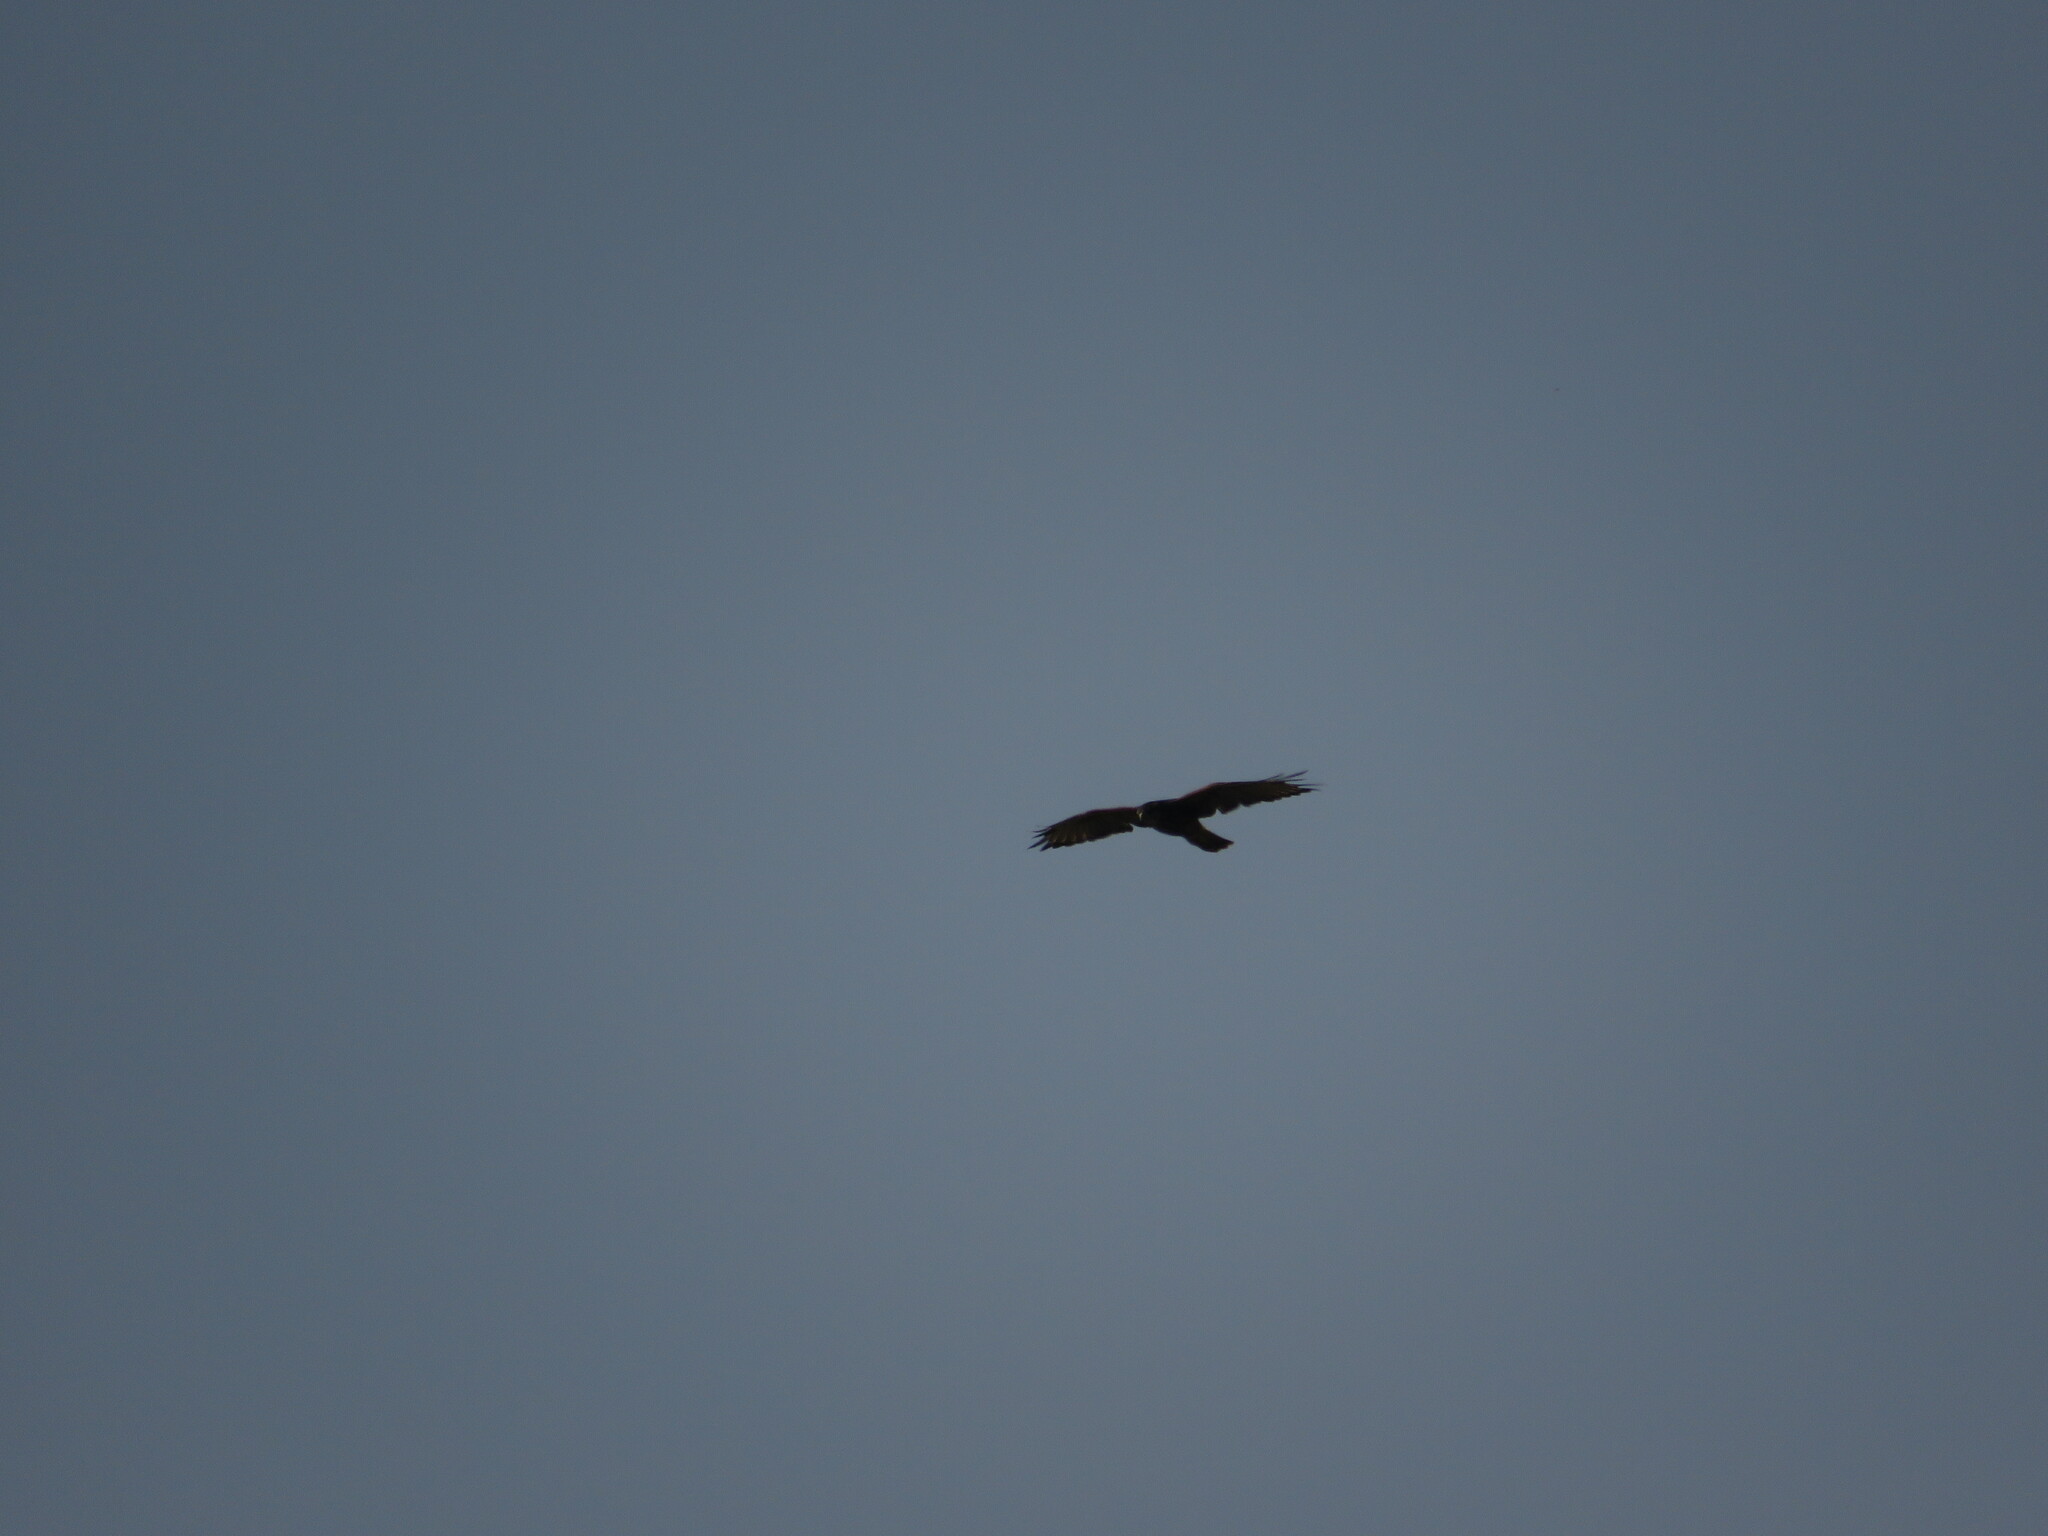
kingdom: Animalia
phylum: Chordata
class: Aves
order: Accipitriformes
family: Accipitridae
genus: Parabuteo
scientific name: Parabuteo unicinctus
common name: Harris's hawk
